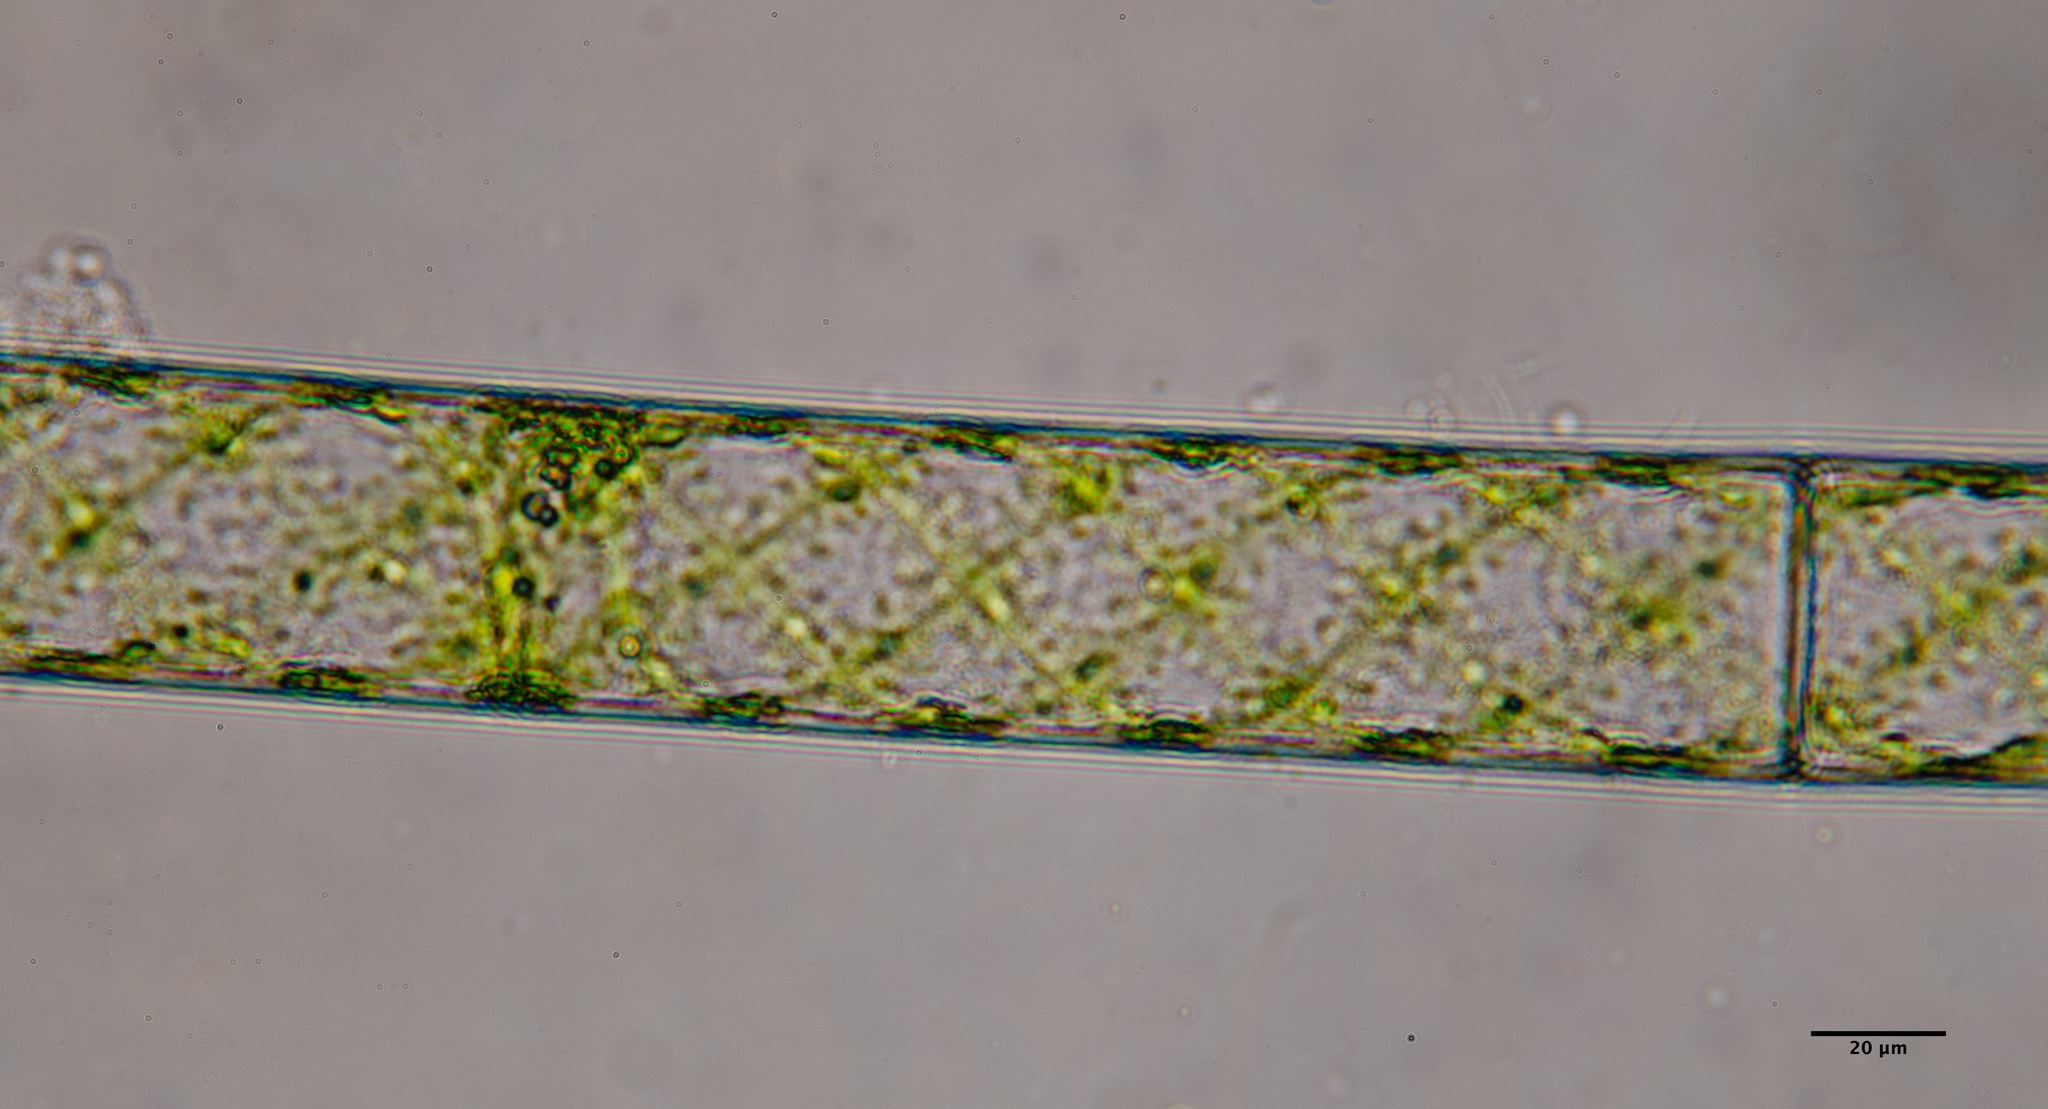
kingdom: Plantae
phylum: Charophyta
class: Zygnematophyceae
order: Zygnematales
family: Zygnemataceae
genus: Spirogyra
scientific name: Spirogyra
